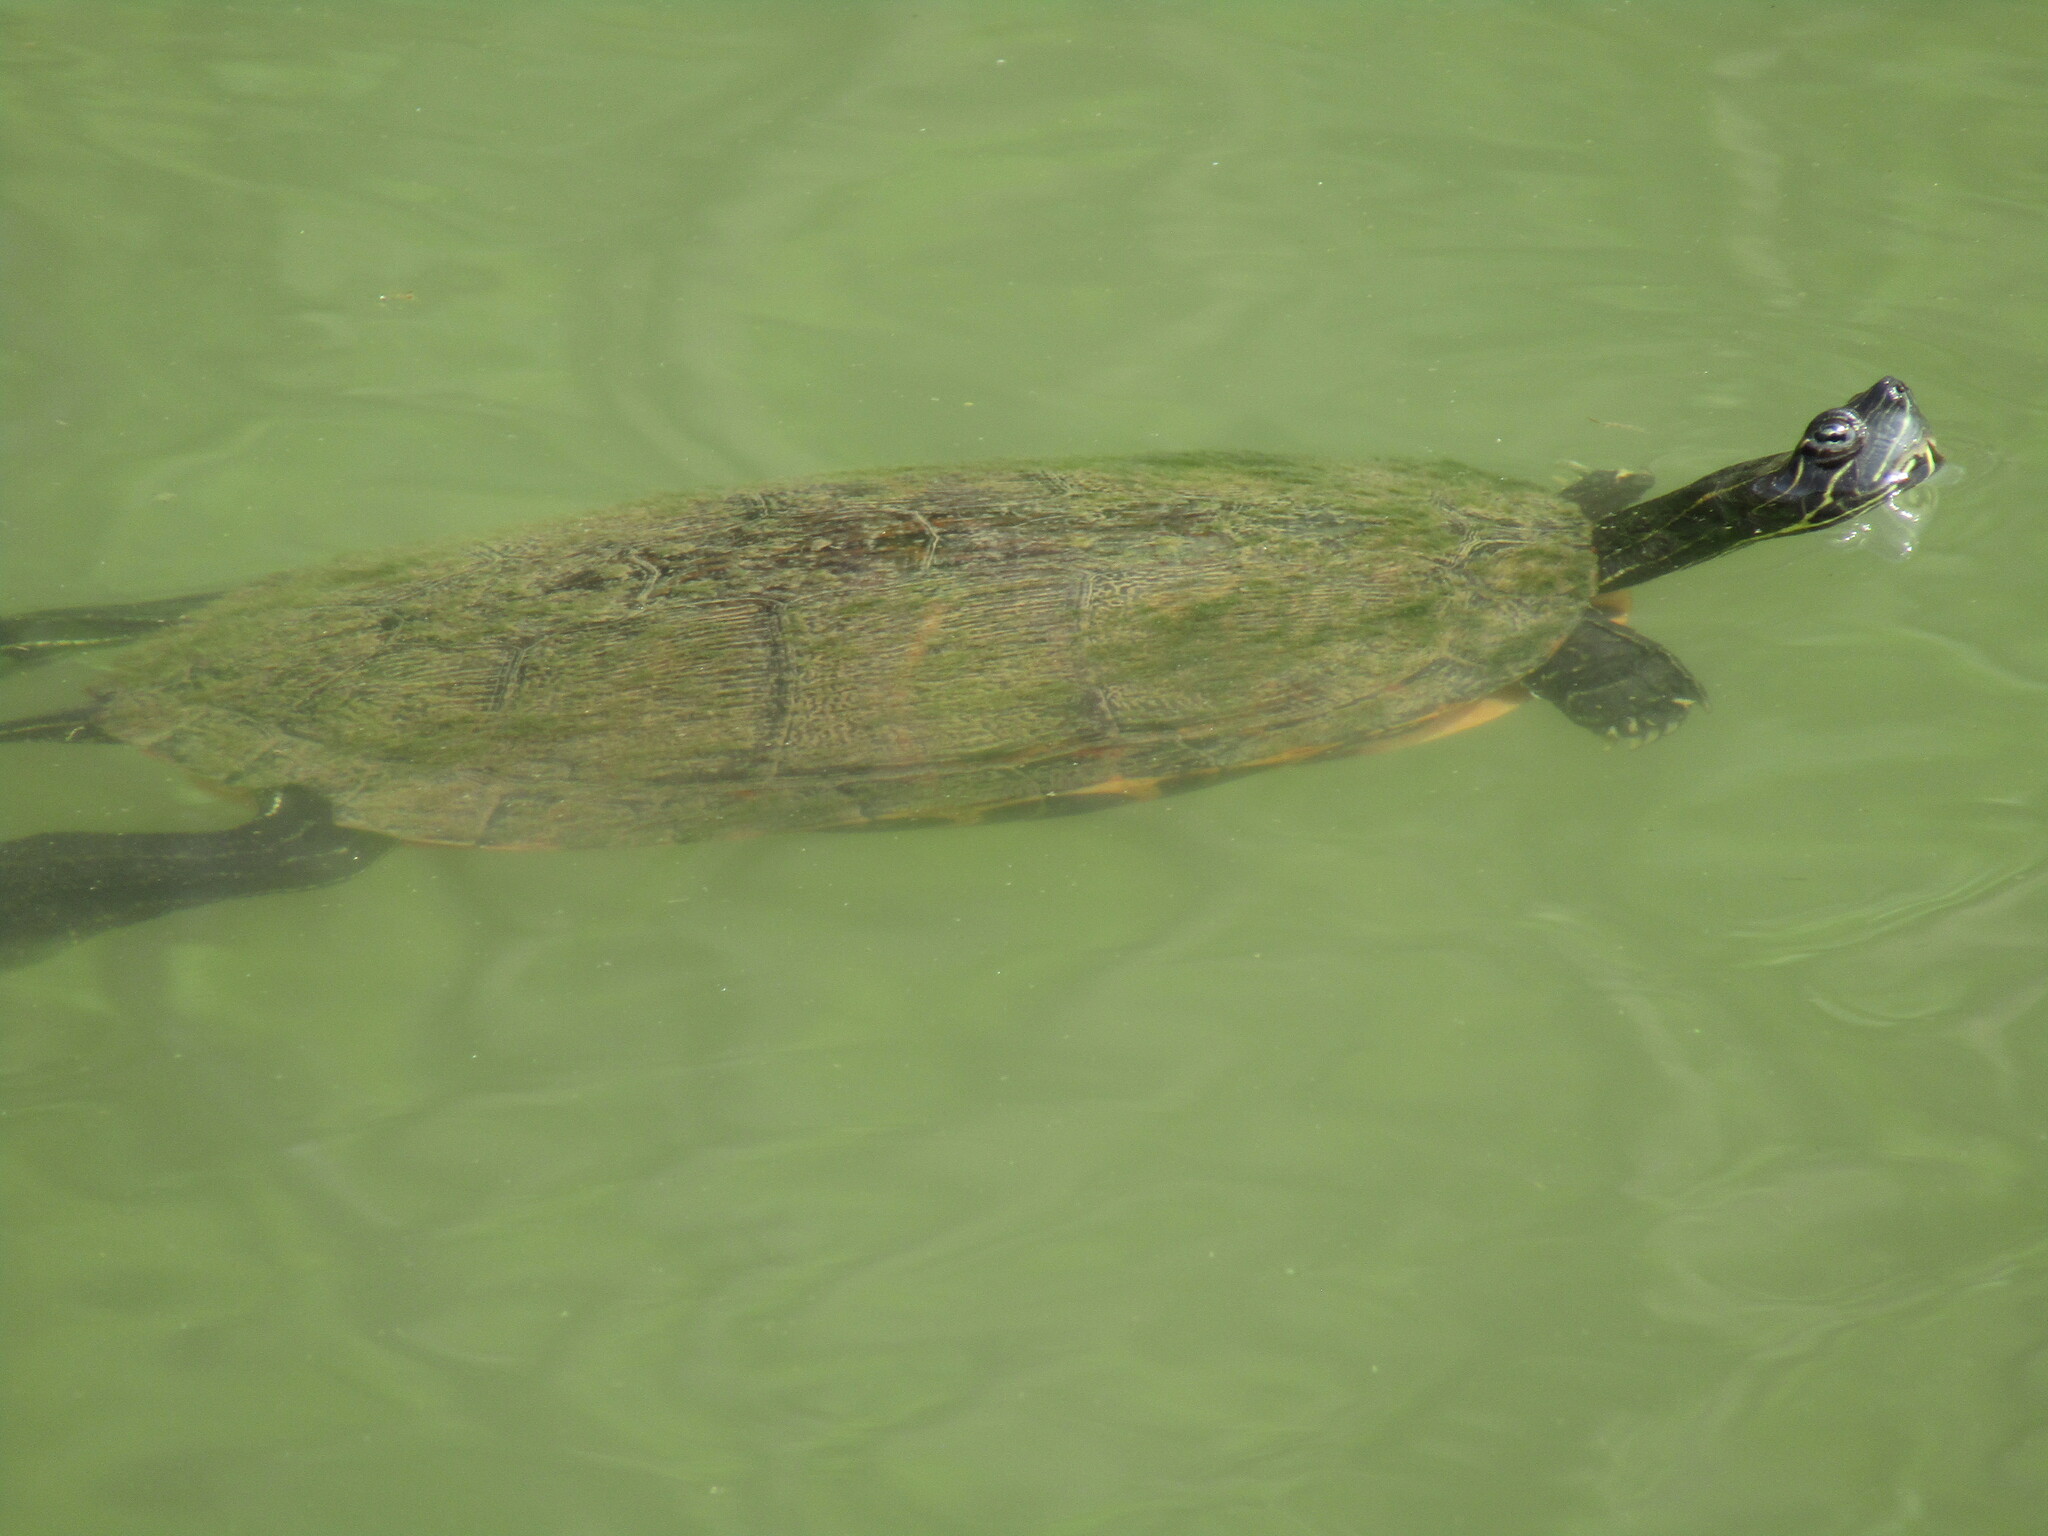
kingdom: Animalia
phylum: Chordata
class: Testudines
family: Emydidae
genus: Pseudemys
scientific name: Pseudemys rubriventris
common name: American red-bellied turtle
